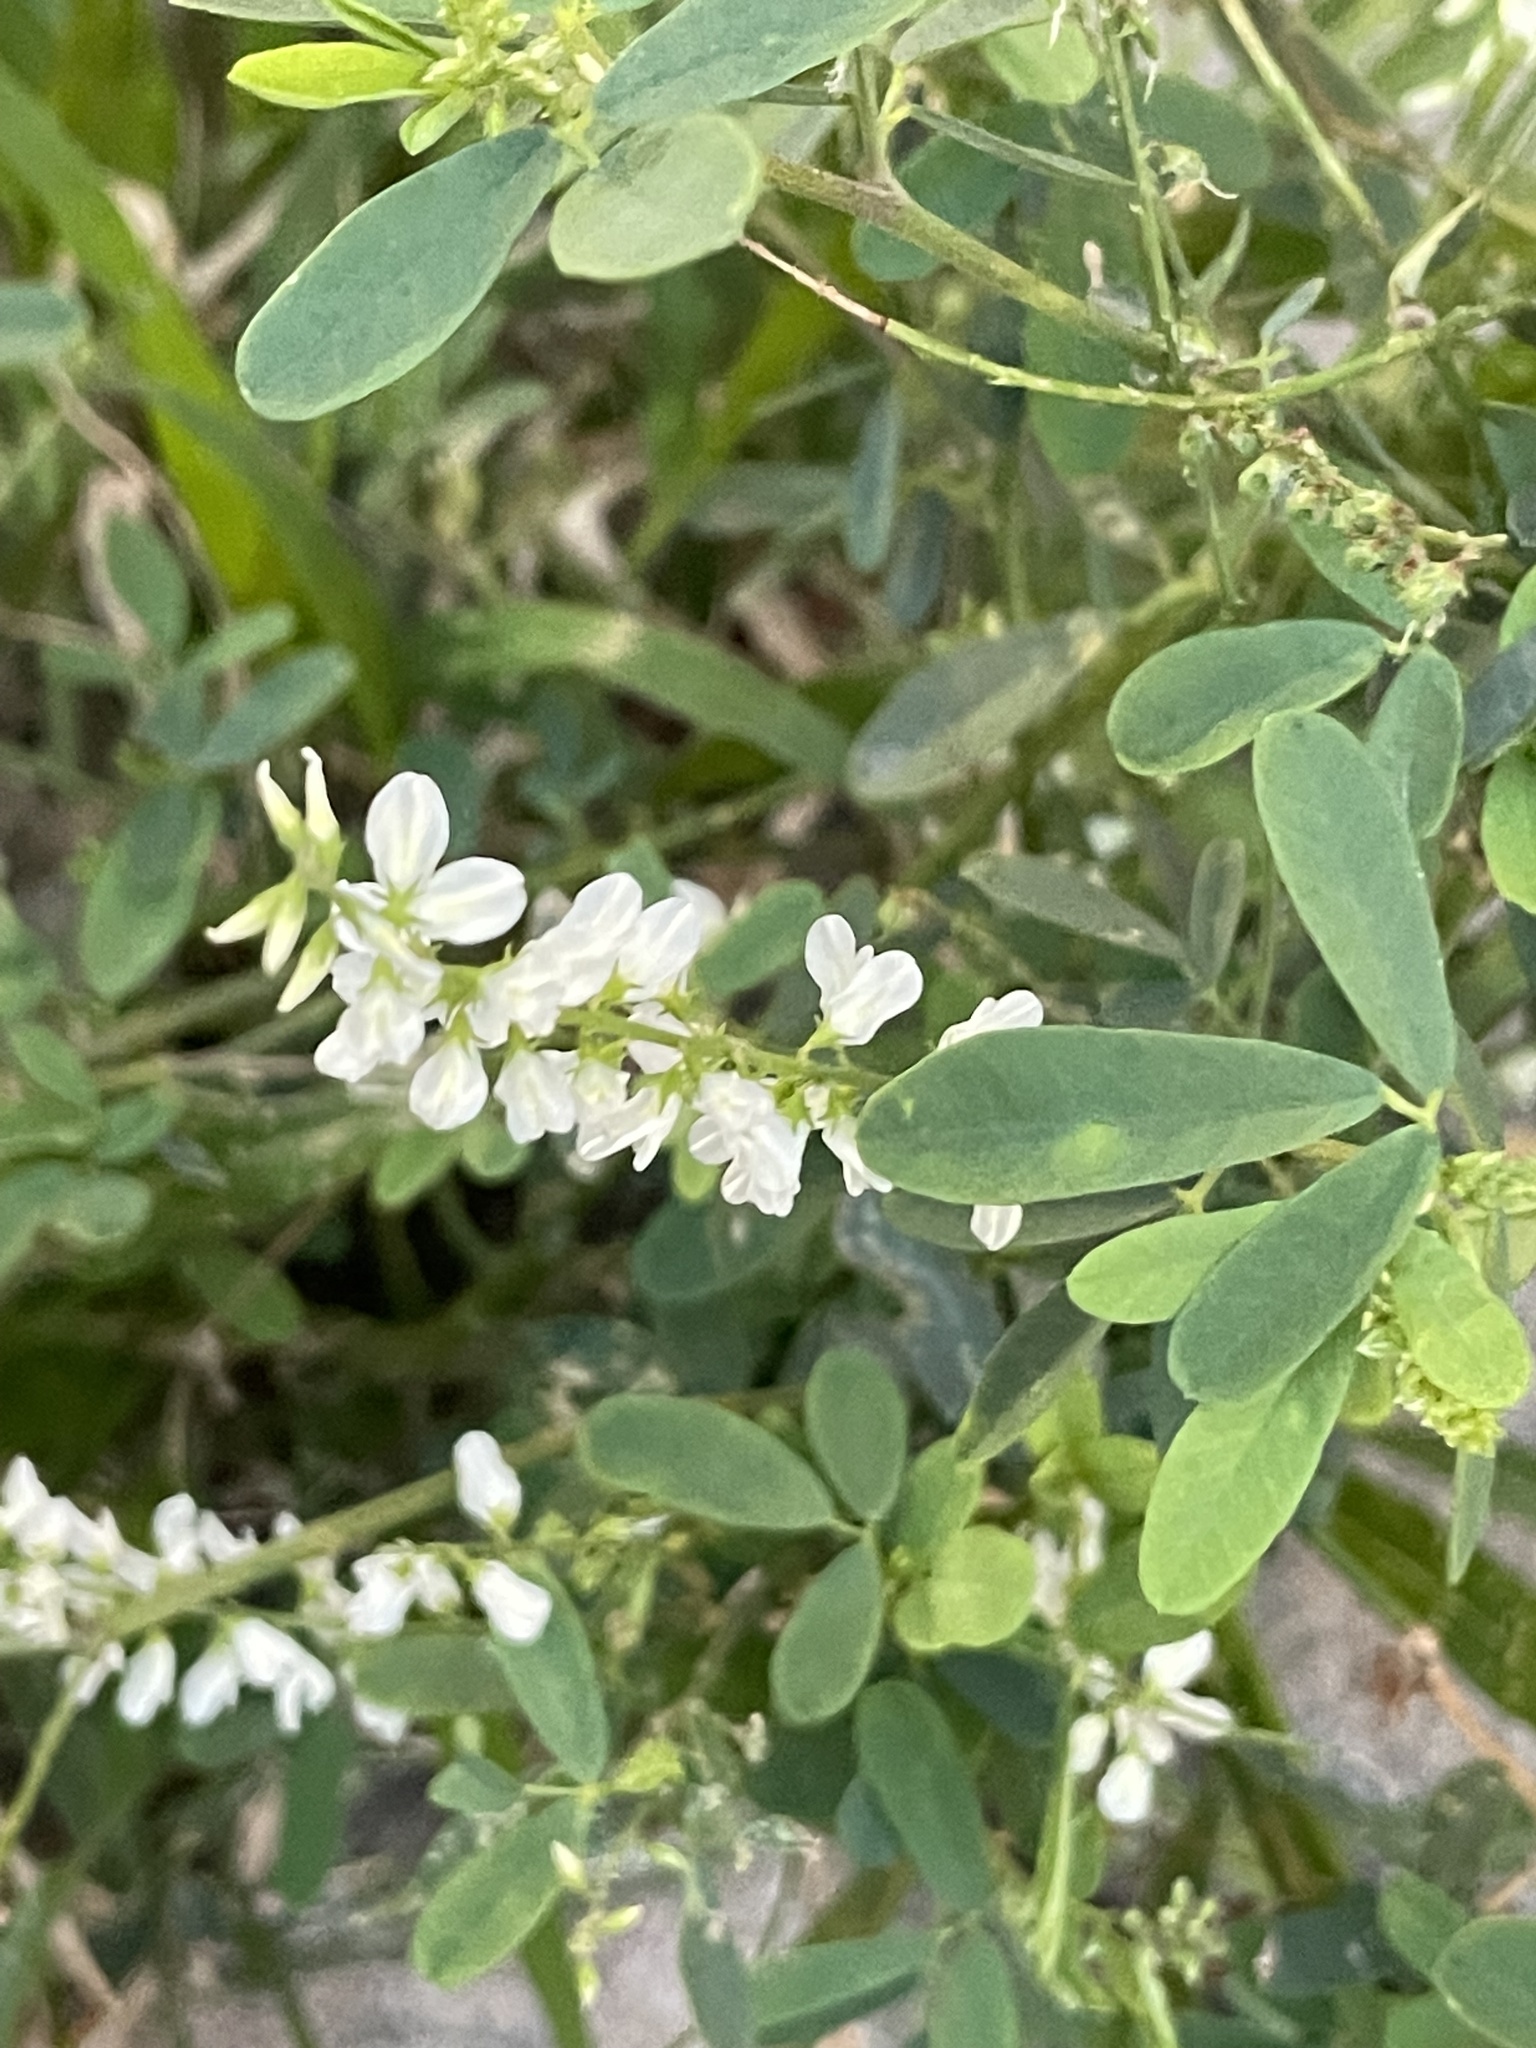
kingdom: Plantae
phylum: Tracheophyta
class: Magnoliopsida
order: Fabales
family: Fabaceae
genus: Melilotus
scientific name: Melilotus albus
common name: White melilot
